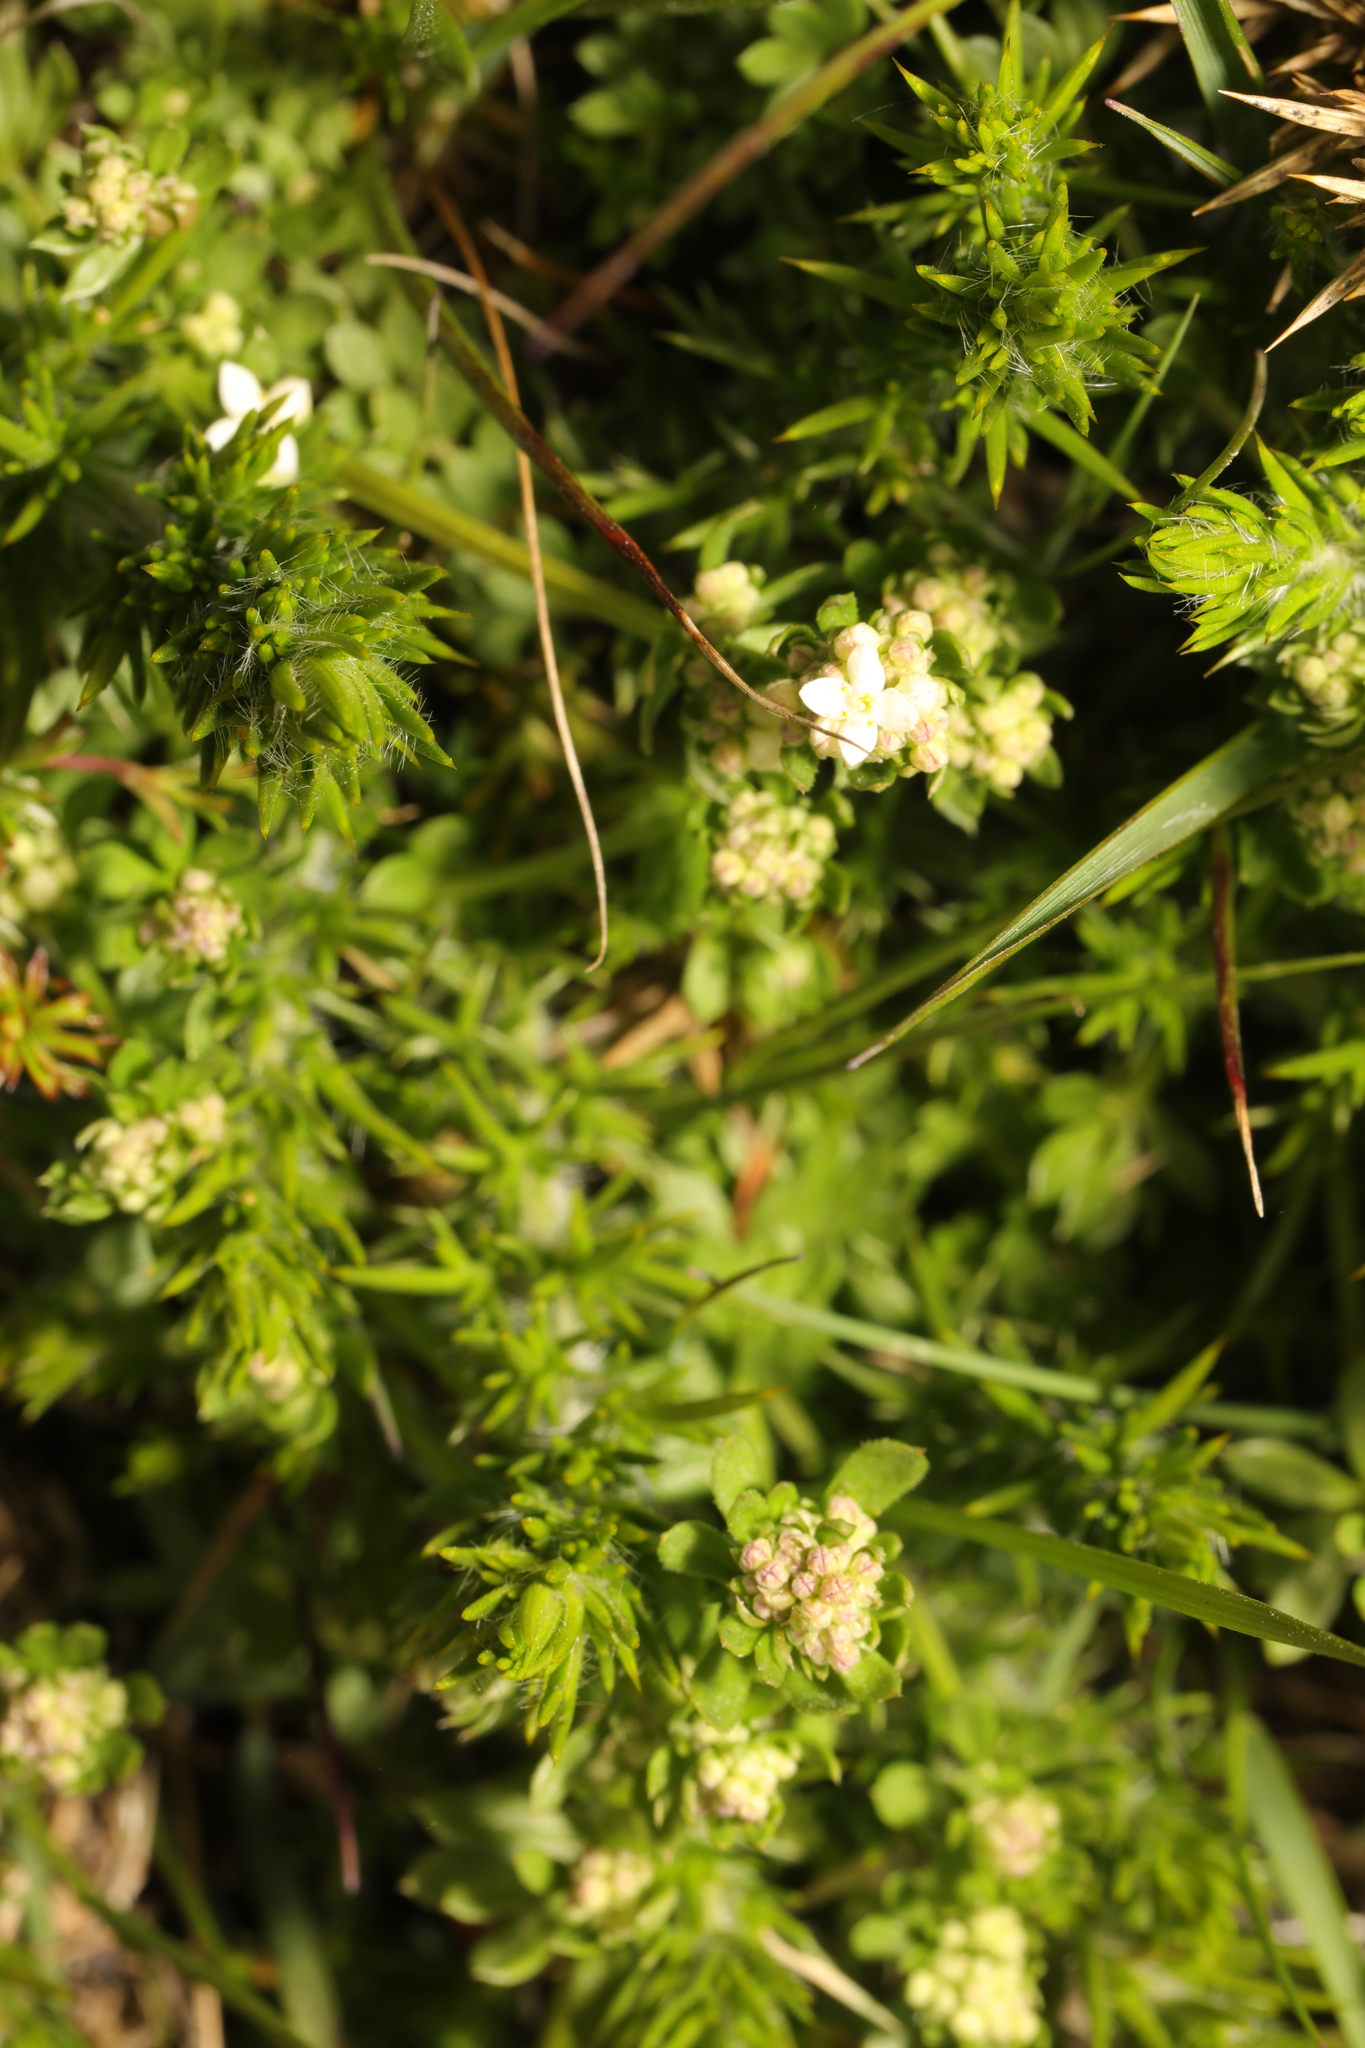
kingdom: Plantae
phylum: Tracheophyta
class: Magnoliopsida
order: Gentianales
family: Rubiaceae
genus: Galium
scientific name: Galium saxatile
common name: Heath bedstraw
